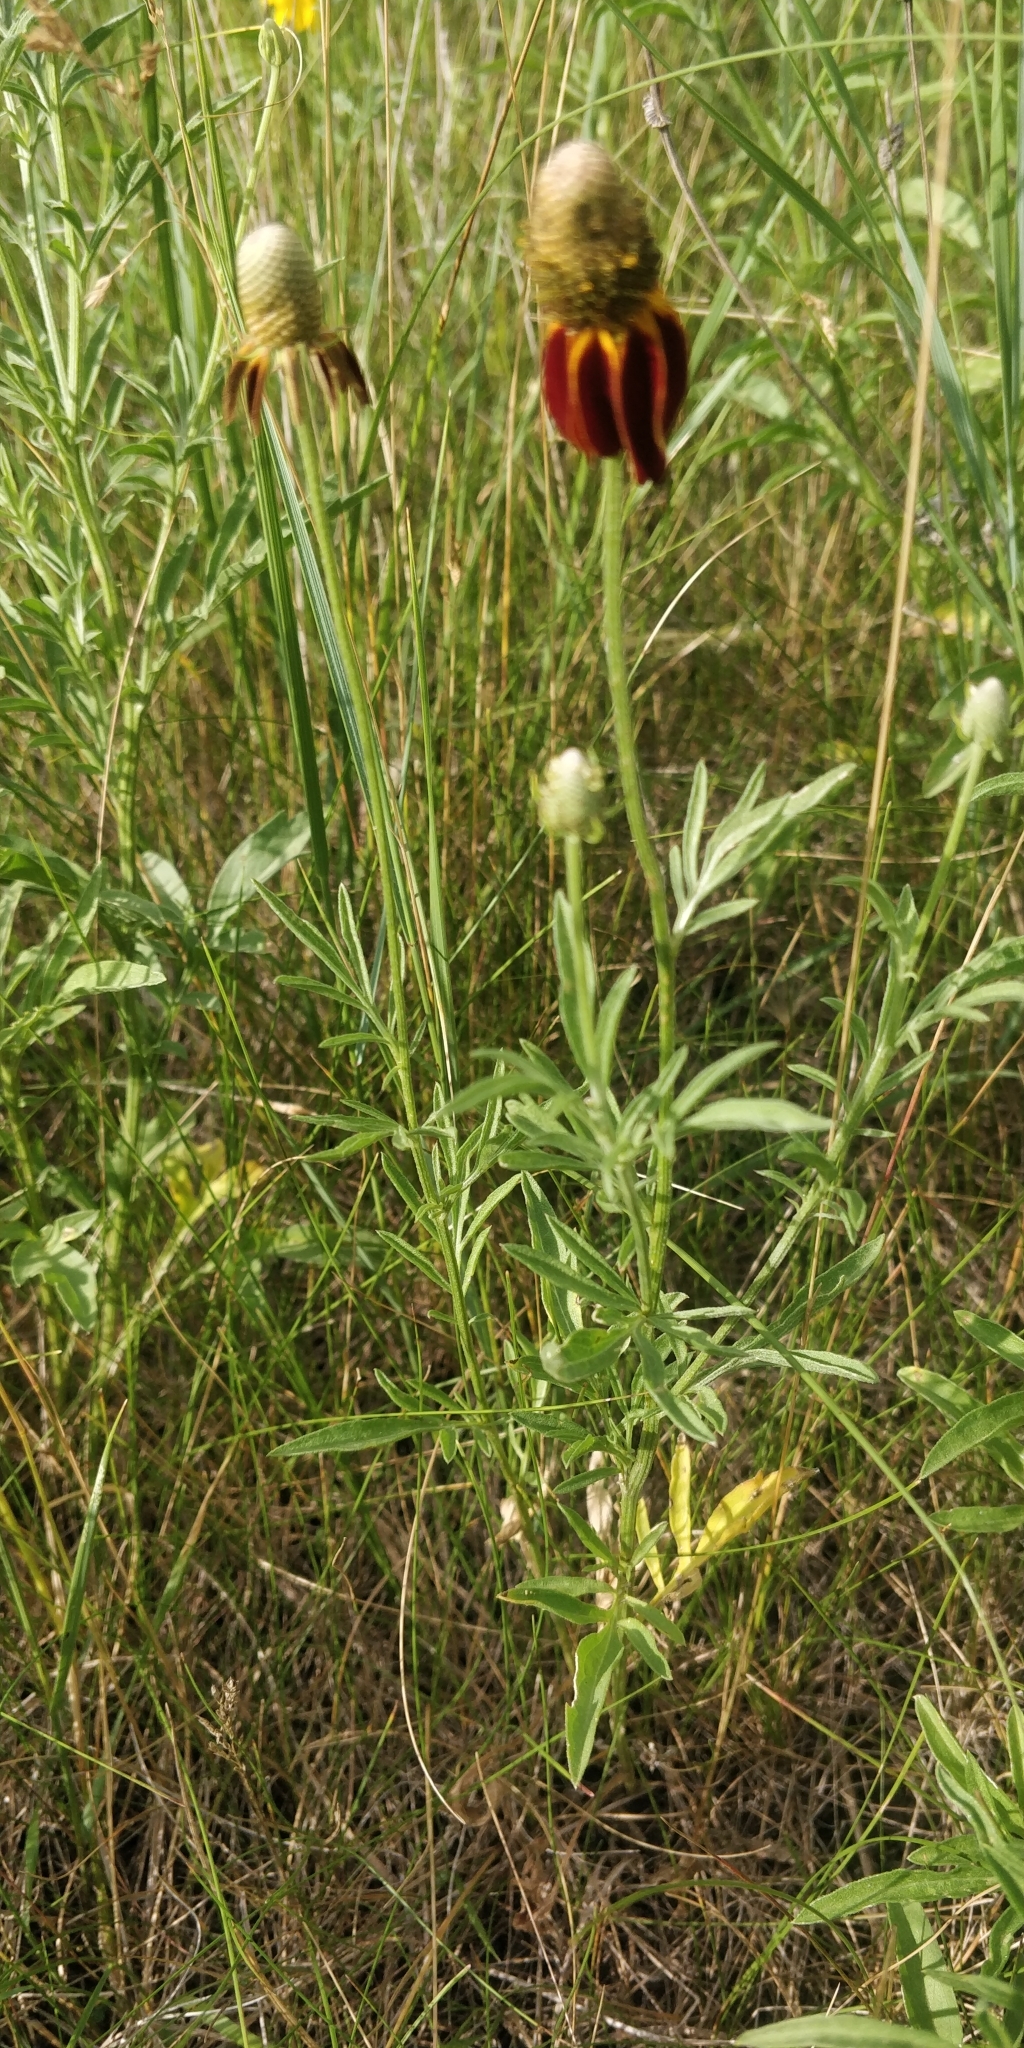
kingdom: Plantae
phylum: Tracheophyta
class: Magnoliopsida
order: Asterales
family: Asteraceae
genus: Ratibida
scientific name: Ratibida columnifera
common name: Prairie coneflower
